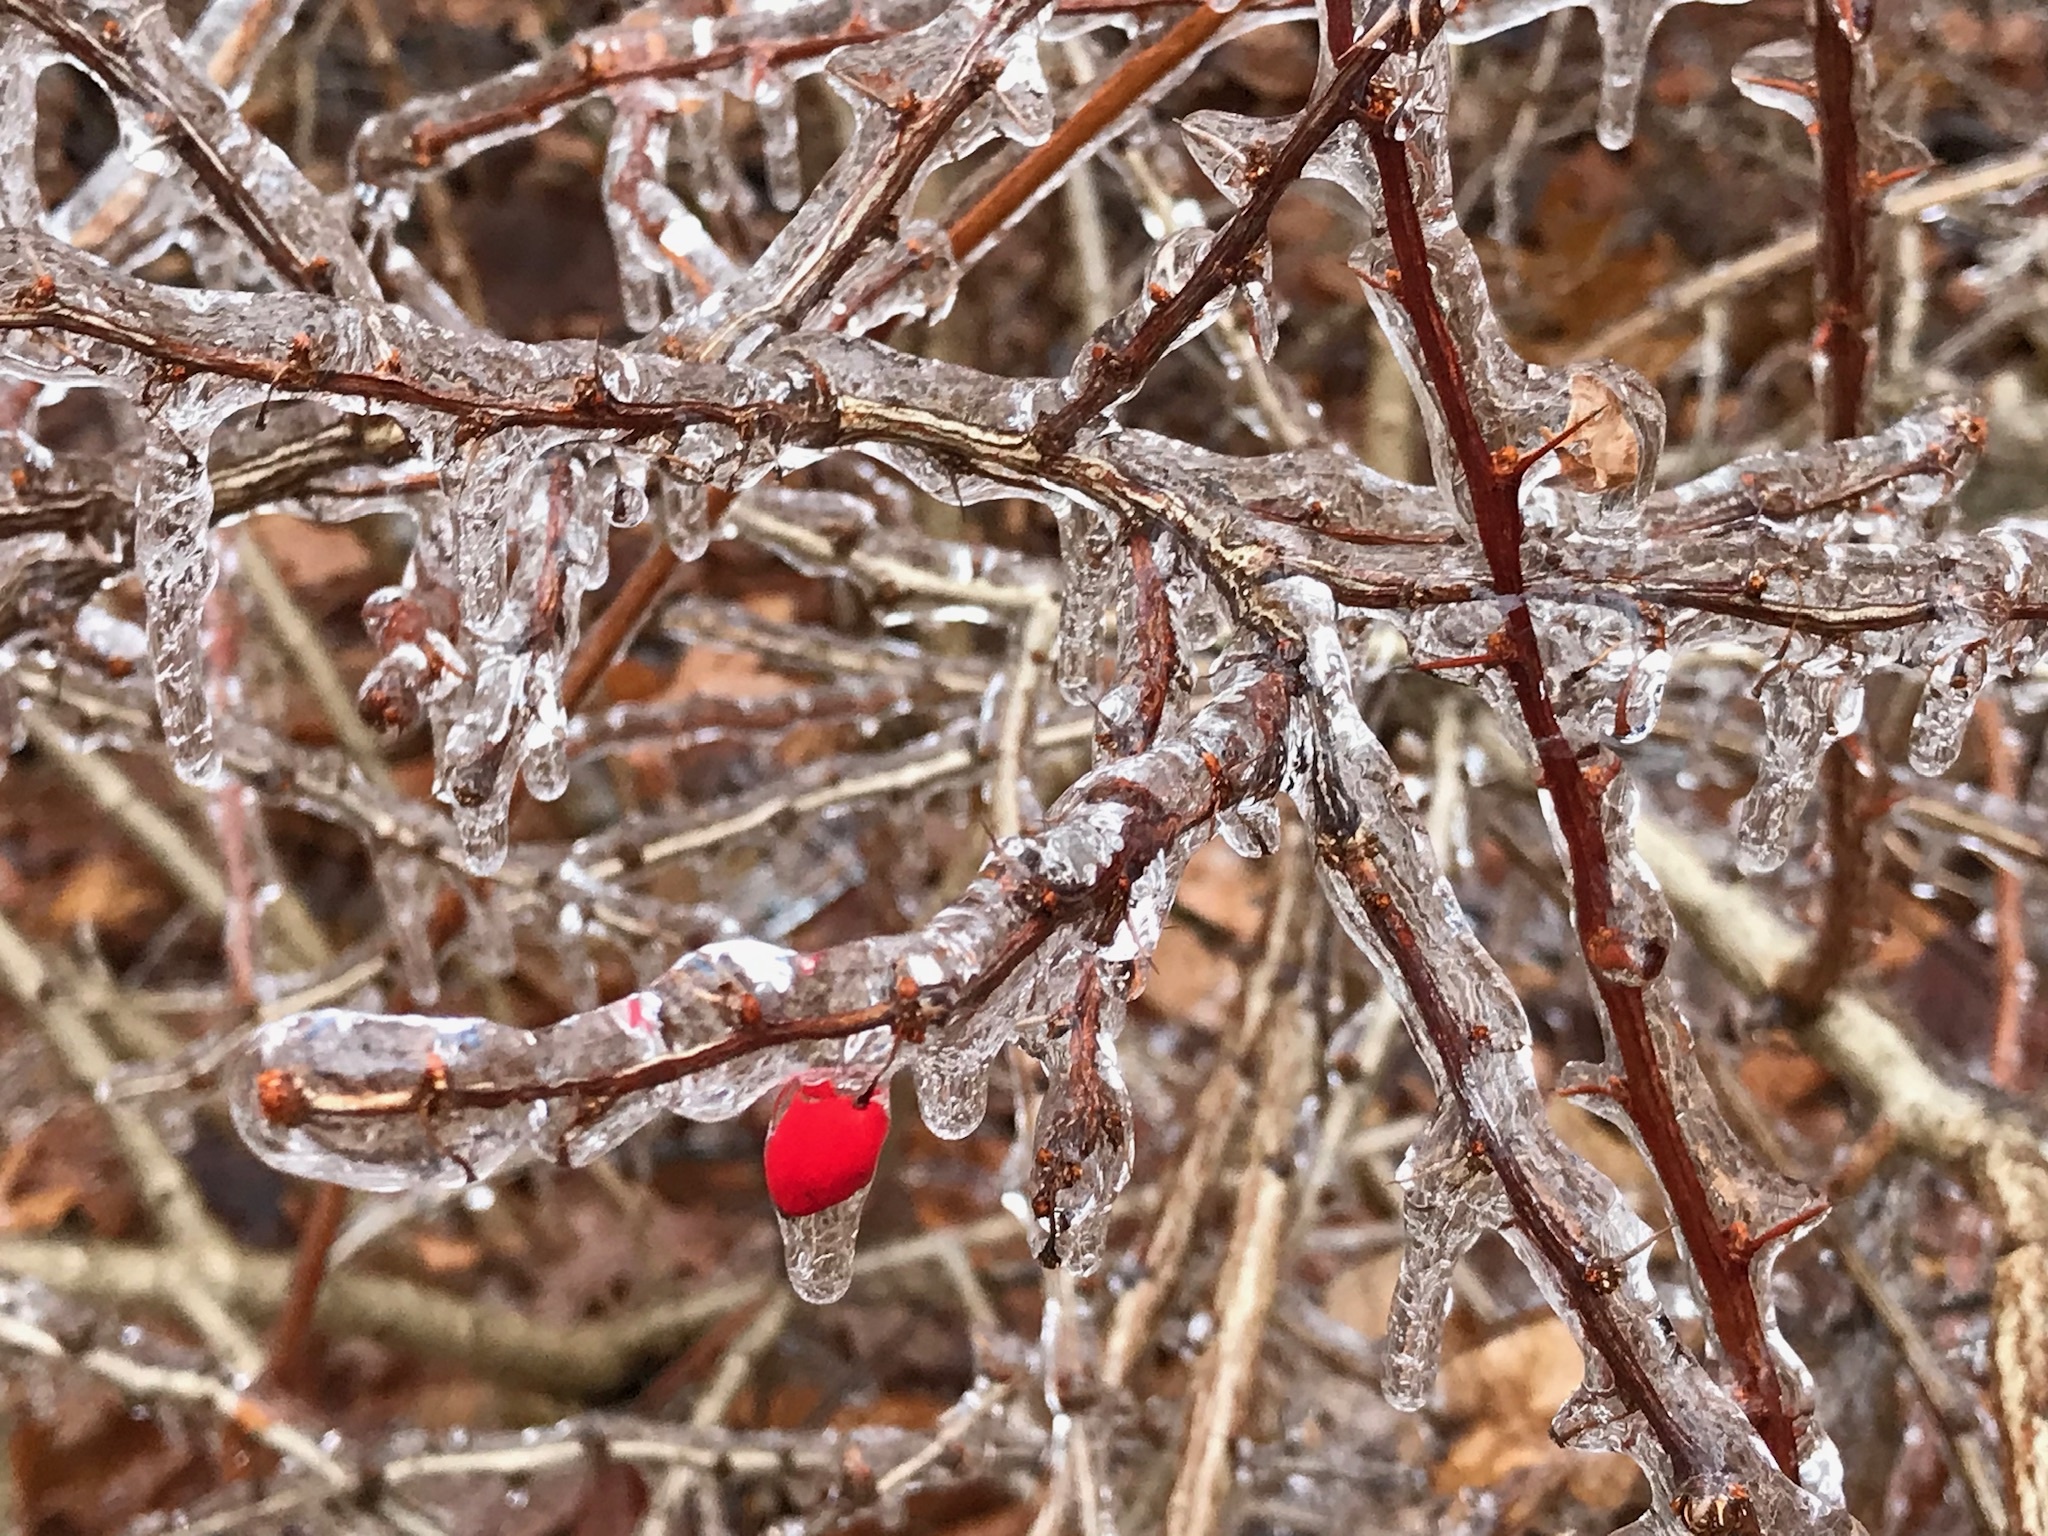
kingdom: Plantae
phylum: Tracheophyta
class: Magnoliopsida
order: Ranunculales
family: Berberidaceae
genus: Berberis
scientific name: Berberis thunbergii
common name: Japanese barberry
